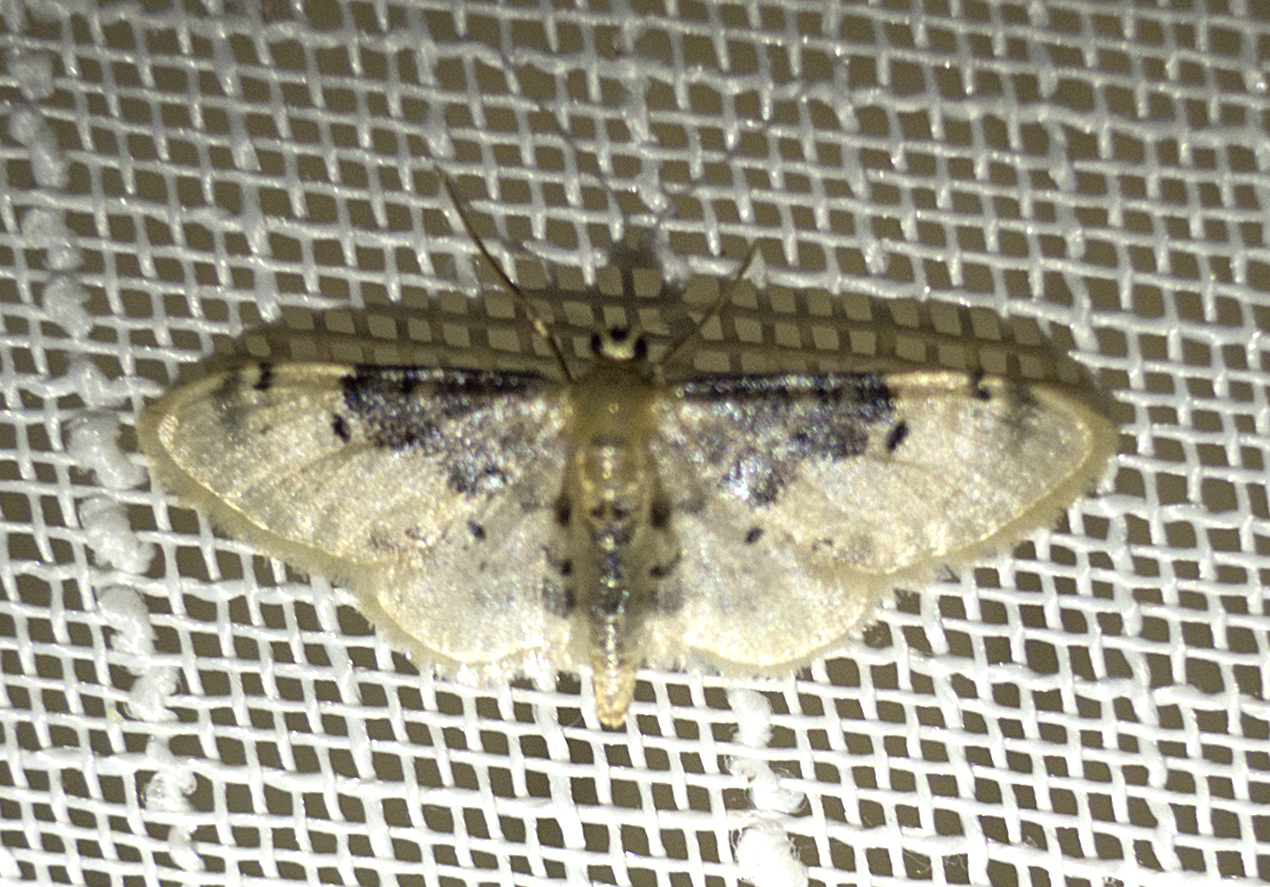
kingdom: Animalia
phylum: Arthropoda
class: Insecta
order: Lepidoptera
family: Geometridae
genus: Idaea
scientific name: Idaea filicata
